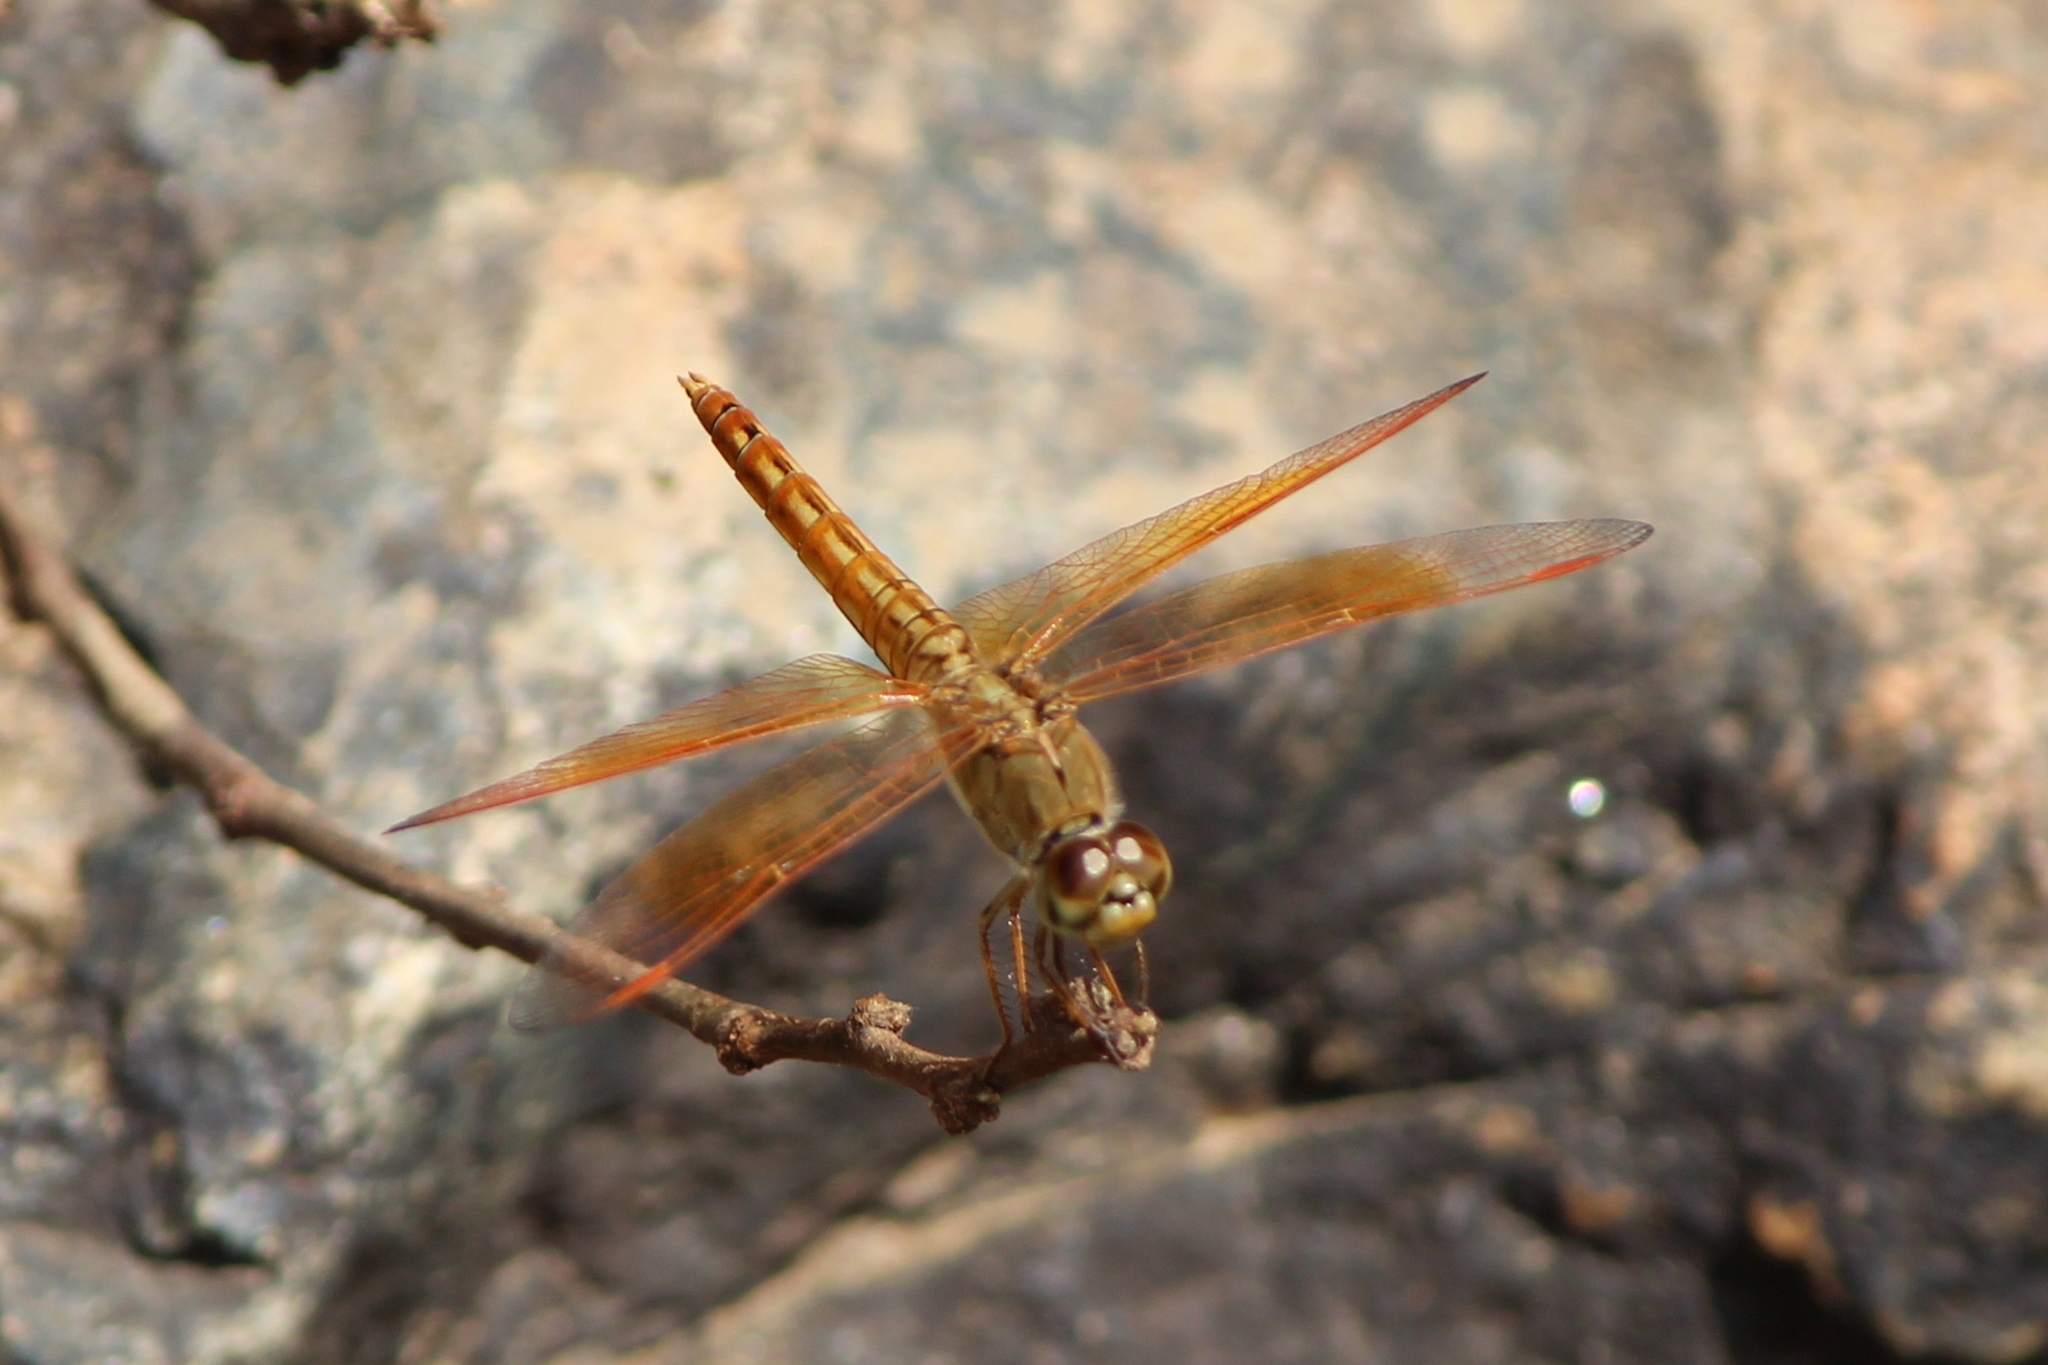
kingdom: Animalia
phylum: Arthropoda
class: Insecta
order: Odonata
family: Libellulidae
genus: Brachythemis
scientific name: Brachythemis contaminata
